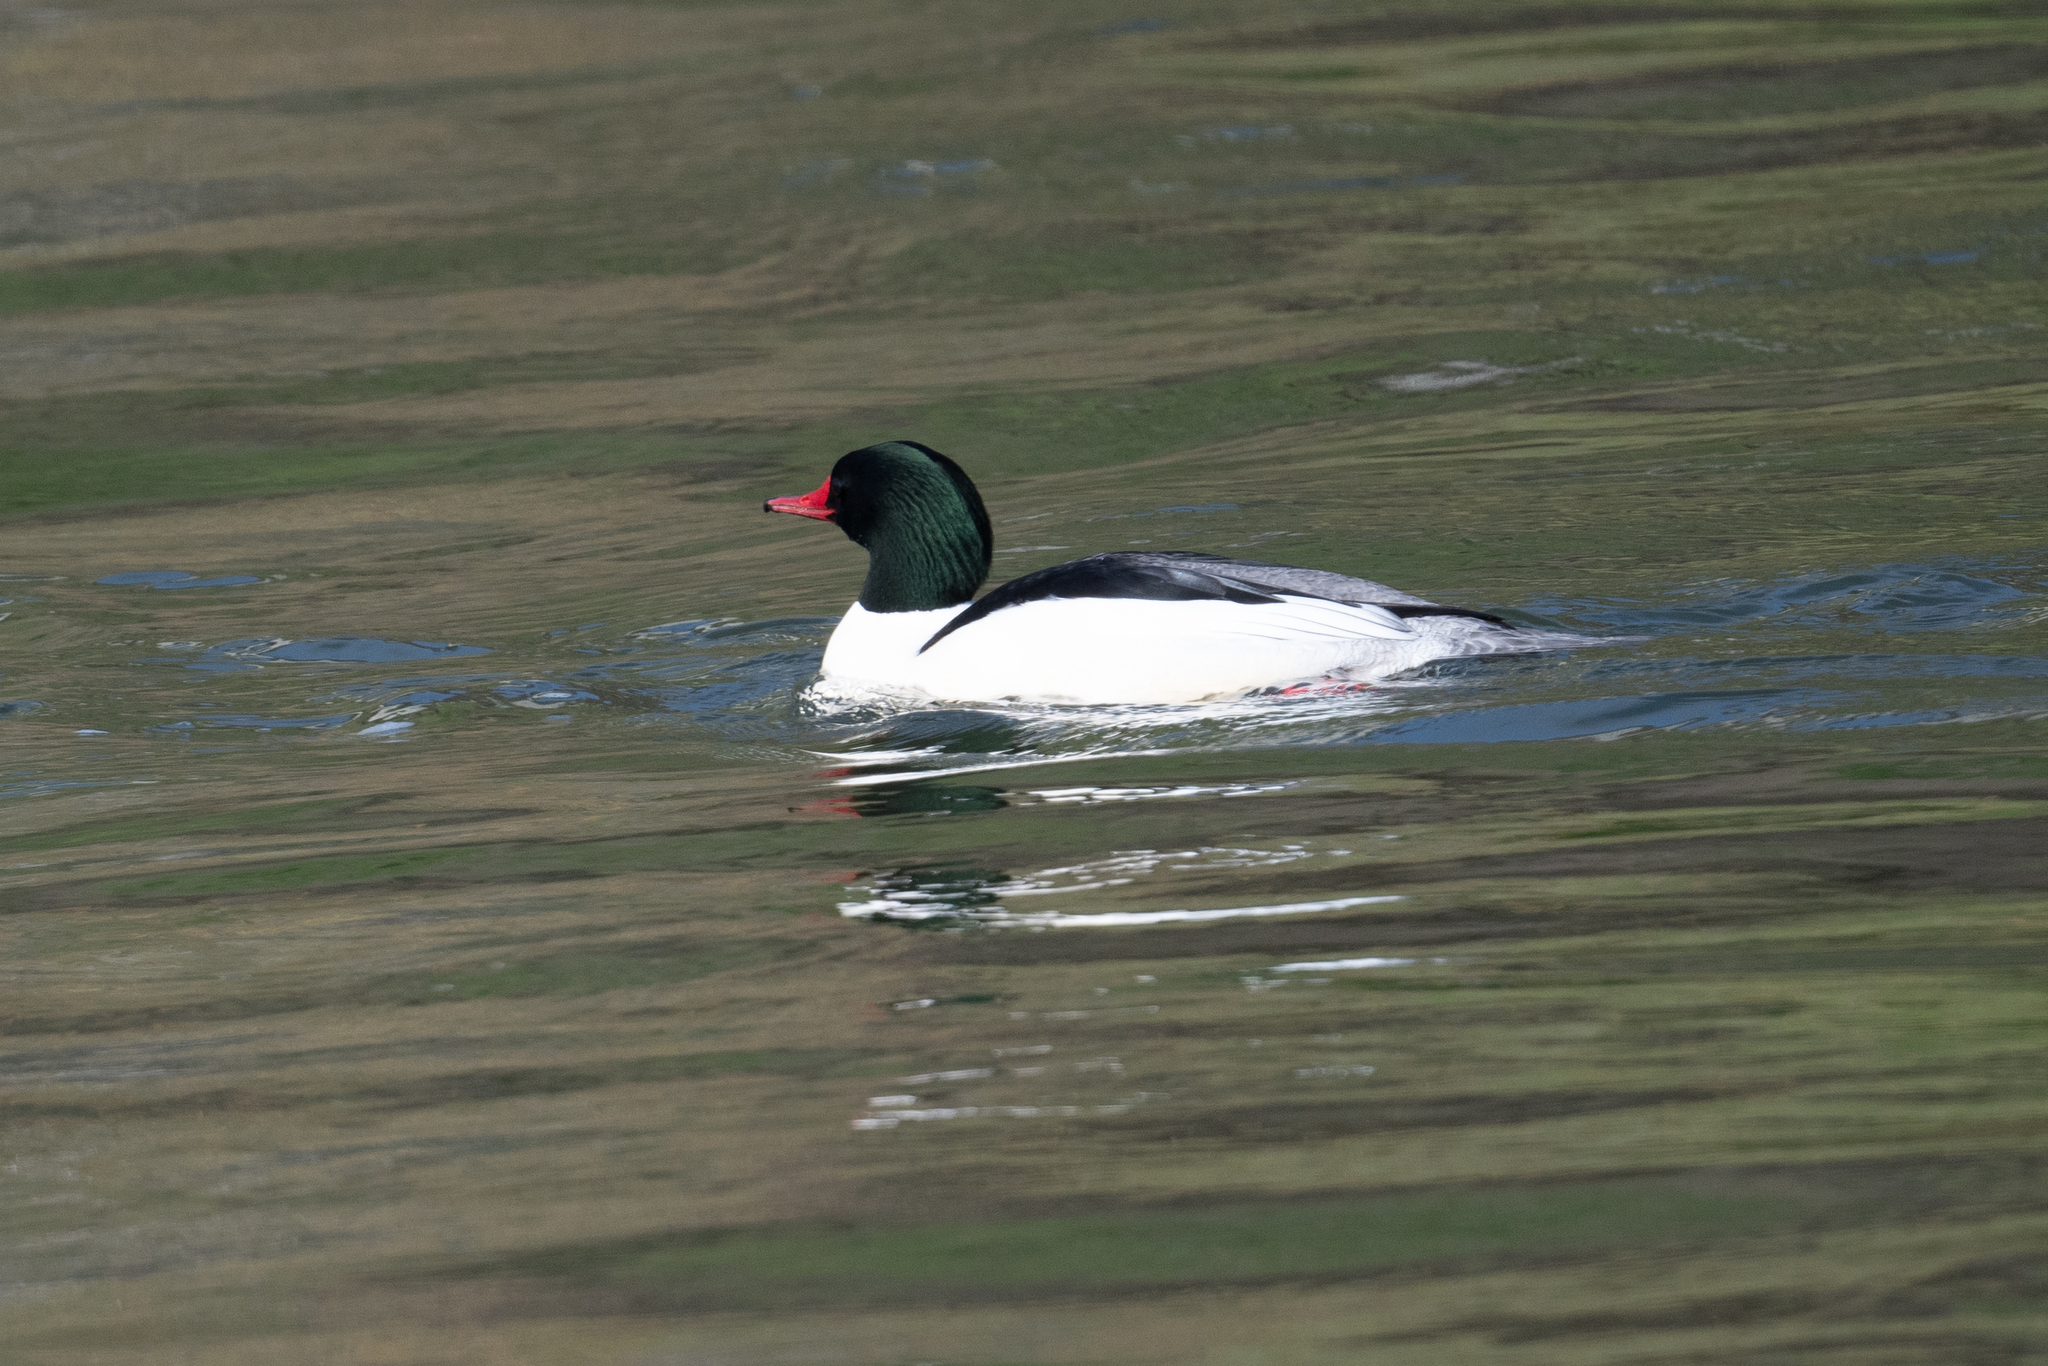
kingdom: Animalia
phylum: Chordata
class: Aves
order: Anseriformes
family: Anatidae
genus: Mergus
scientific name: Mergus merganser
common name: Common merganser
